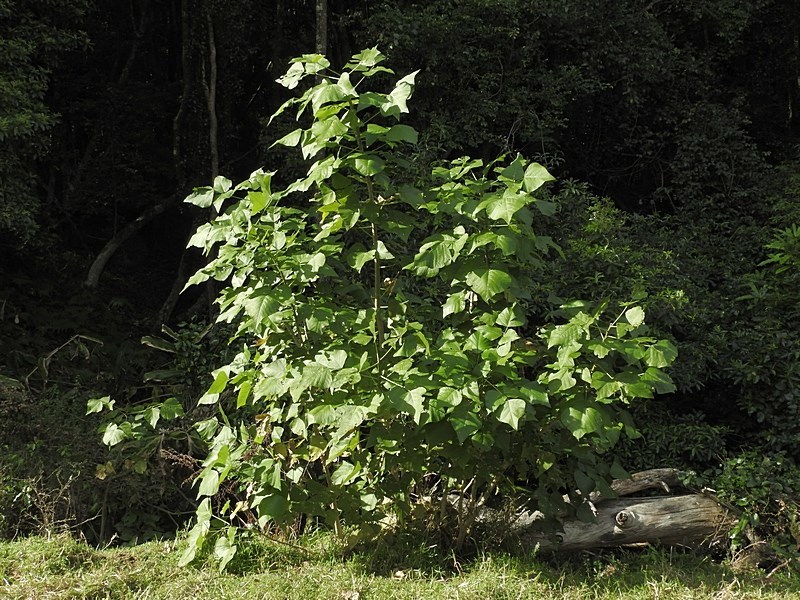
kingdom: Plantae
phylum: Tracheophyta
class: Magnoliopsida
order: Fabales
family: Fabaceae
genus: Erythrina
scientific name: Erythrina sykesii
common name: Coraltree
